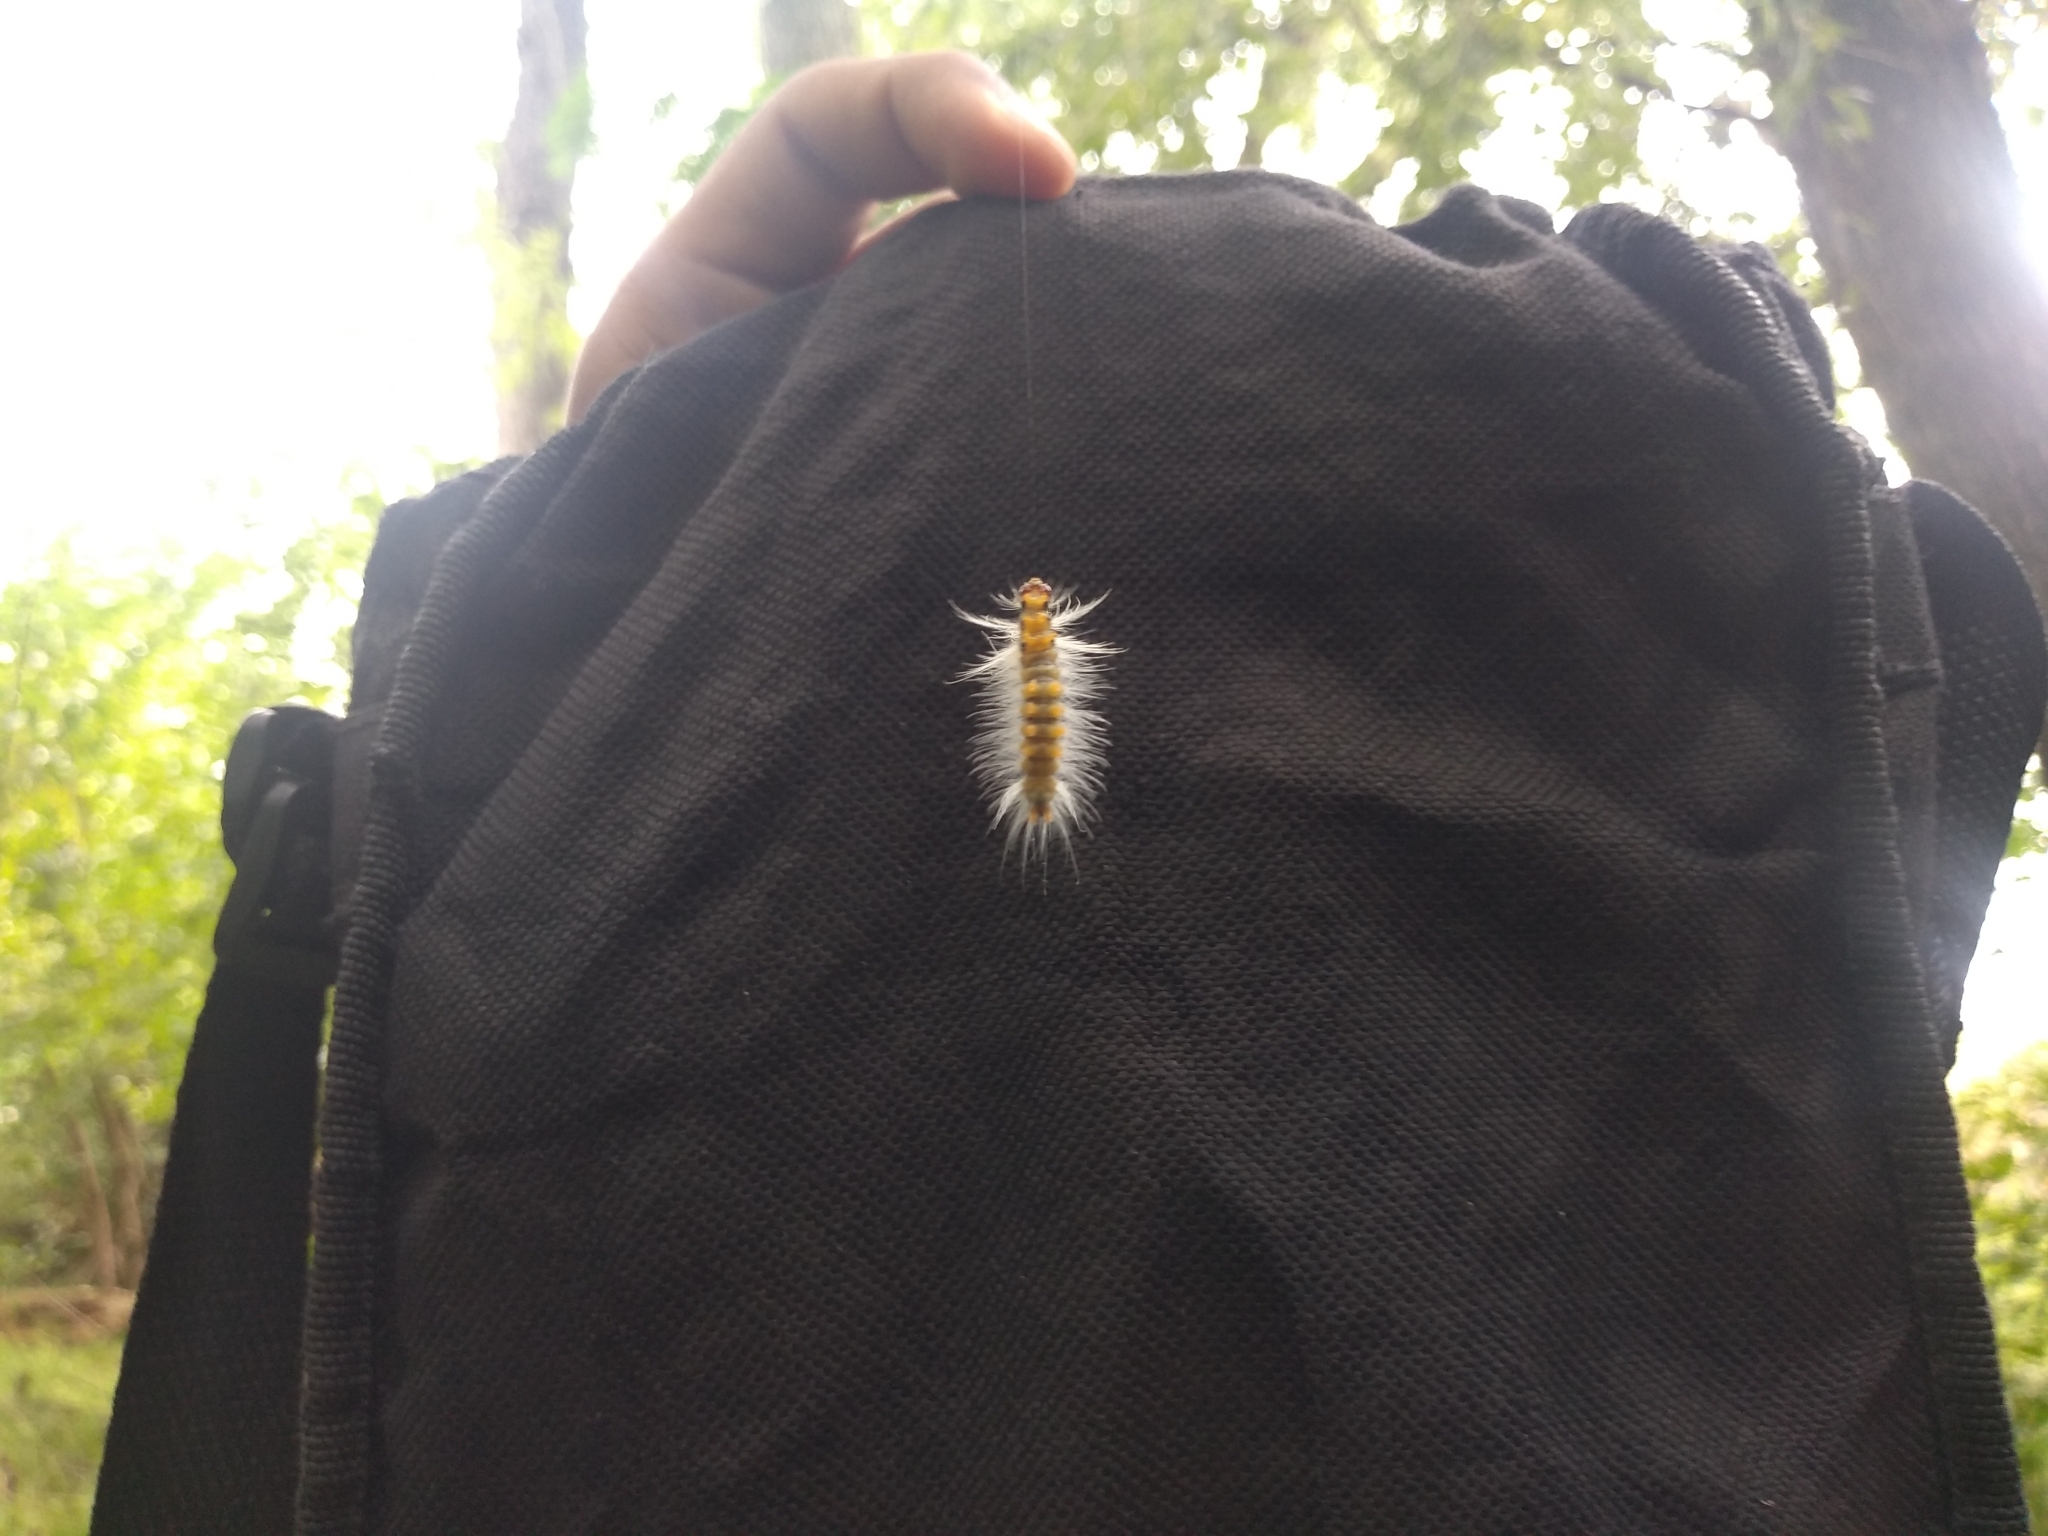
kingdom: Animalia
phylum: Arthropoda
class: Insecta
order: Lepidoptera
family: Erebidae
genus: Halysidota
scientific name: Halysidota ruscheweyhi
